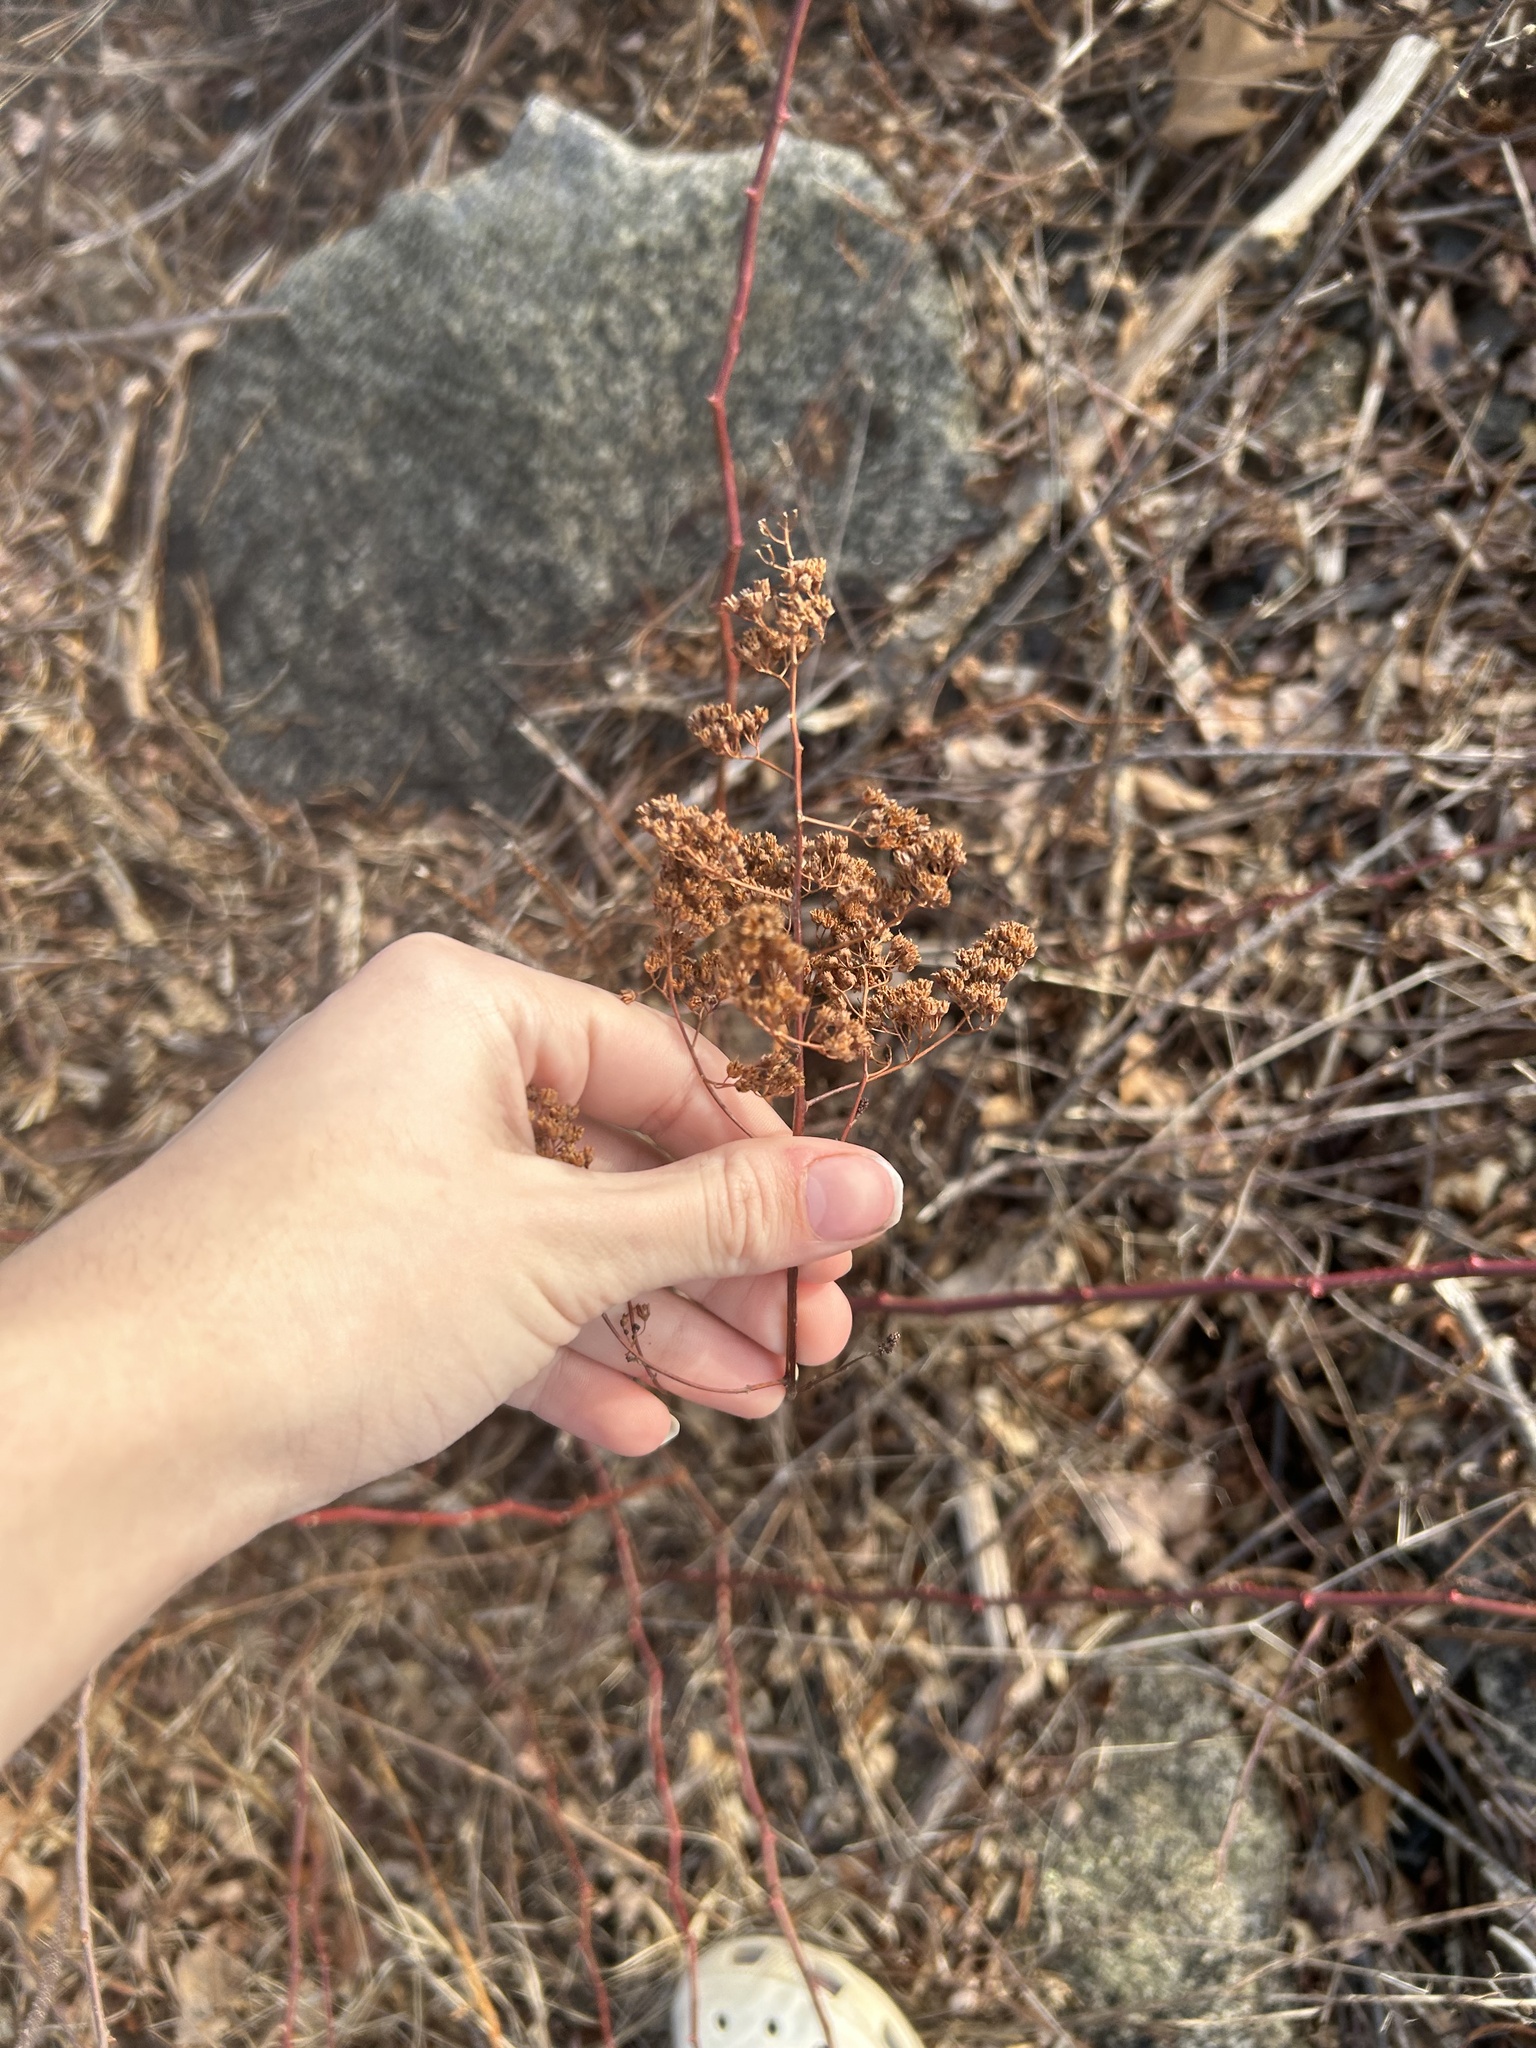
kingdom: Plantae
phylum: Tracheophyta
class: Magnoliopsida
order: Rosales
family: Rosaceae
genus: Spiraea
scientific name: Spiraea alba
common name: Pale bridewort
